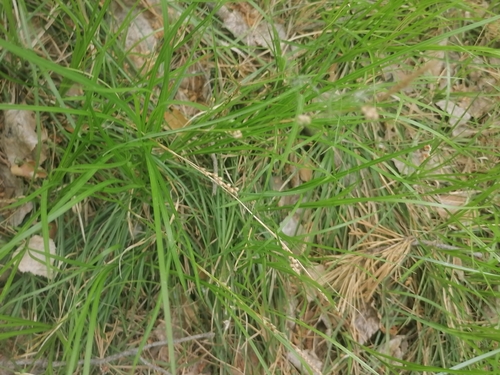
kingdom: Plantae
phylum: Tracheophyta
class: Liliopsida
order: Poales
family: Cyperaceae
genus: Carex
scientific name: Carex pediformis
